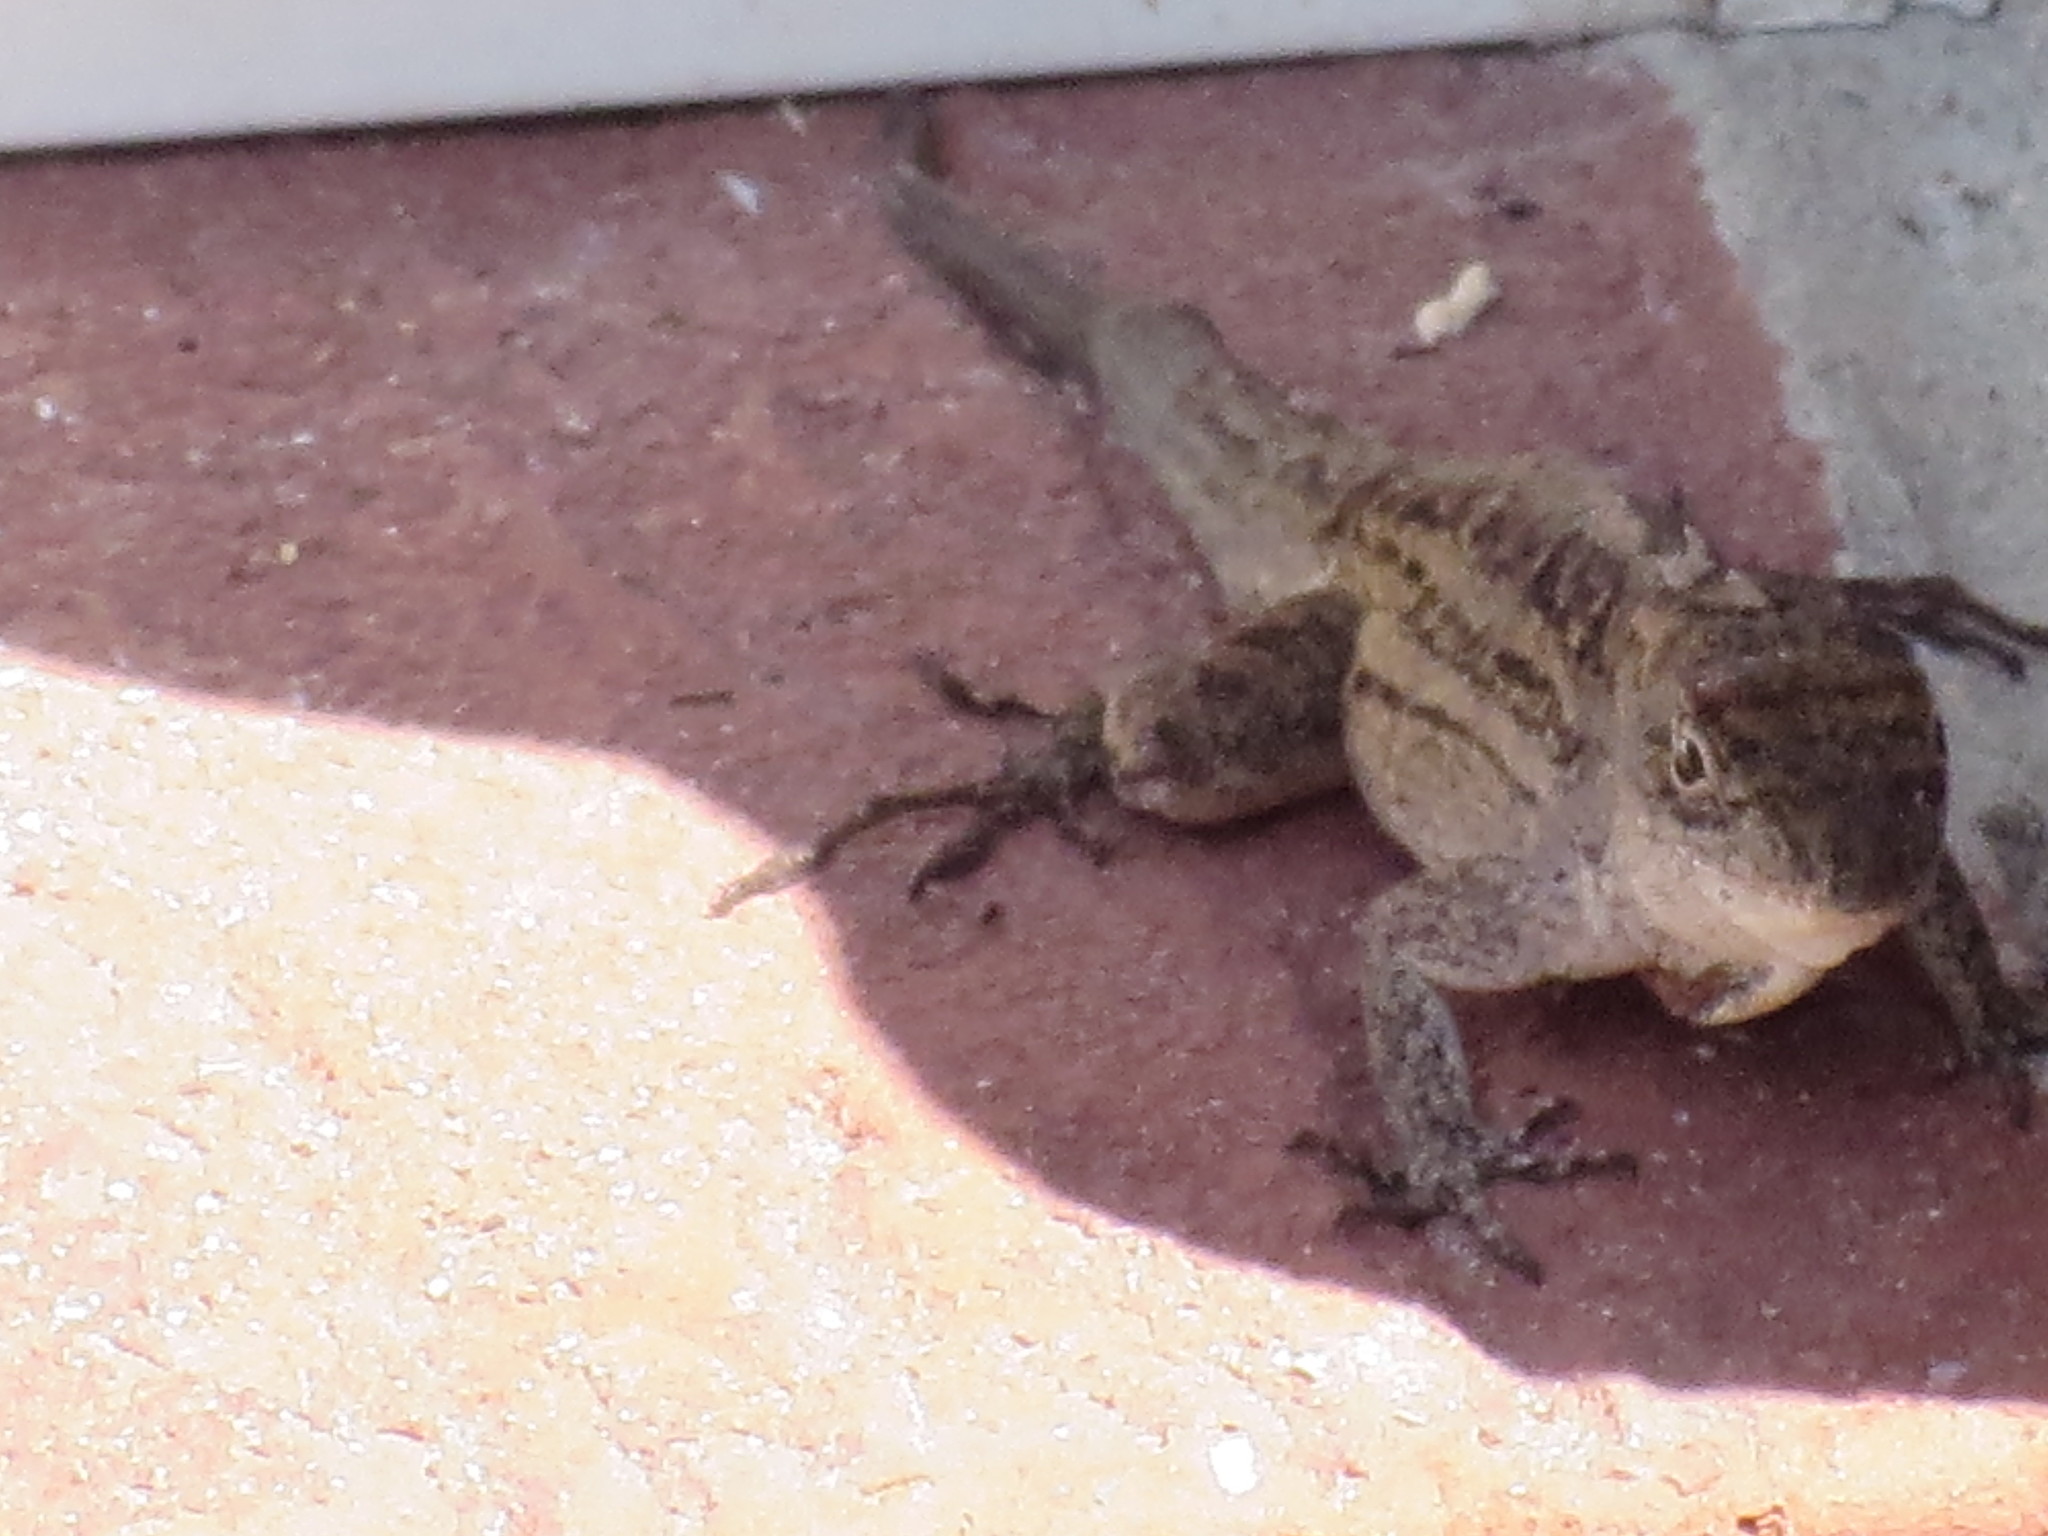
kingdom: Animalia
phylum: Chordata
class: Squamata
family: Dactyloidae
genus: Anolis
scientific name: Anolis sagrei
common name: Brown anole
